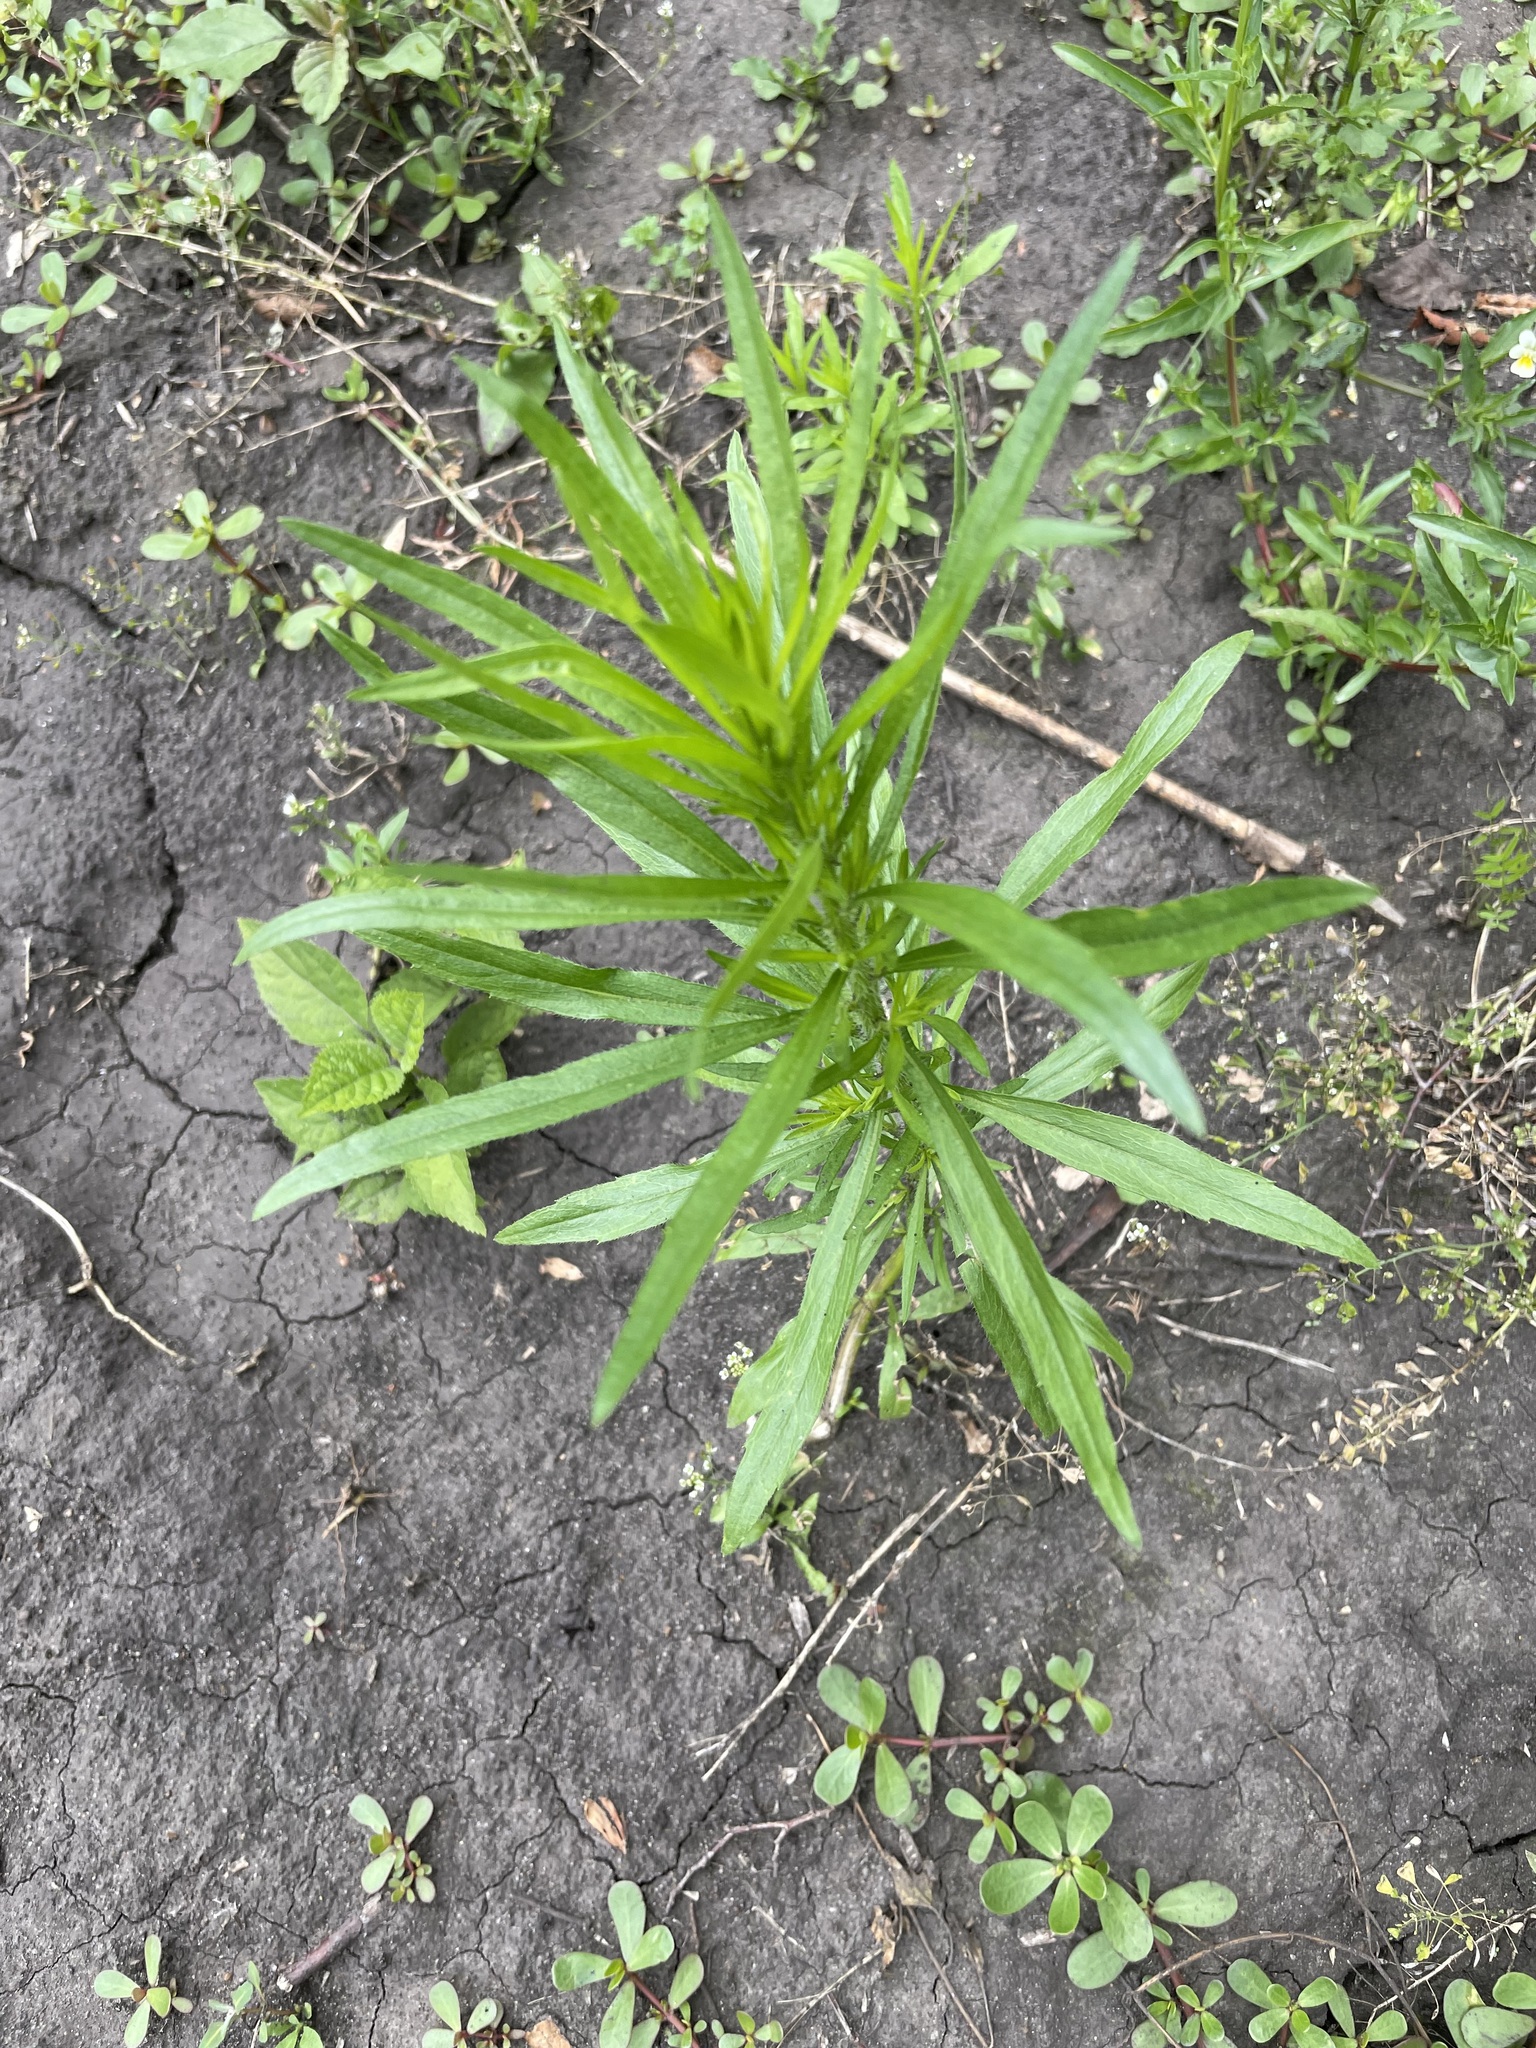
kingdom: Plantae
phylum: Tracheophyta
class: Magnoliopsida
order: Asterales
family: Asteraceae
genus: Erigeron
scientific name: Erigeron canadensis
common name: Canadian fleabane
